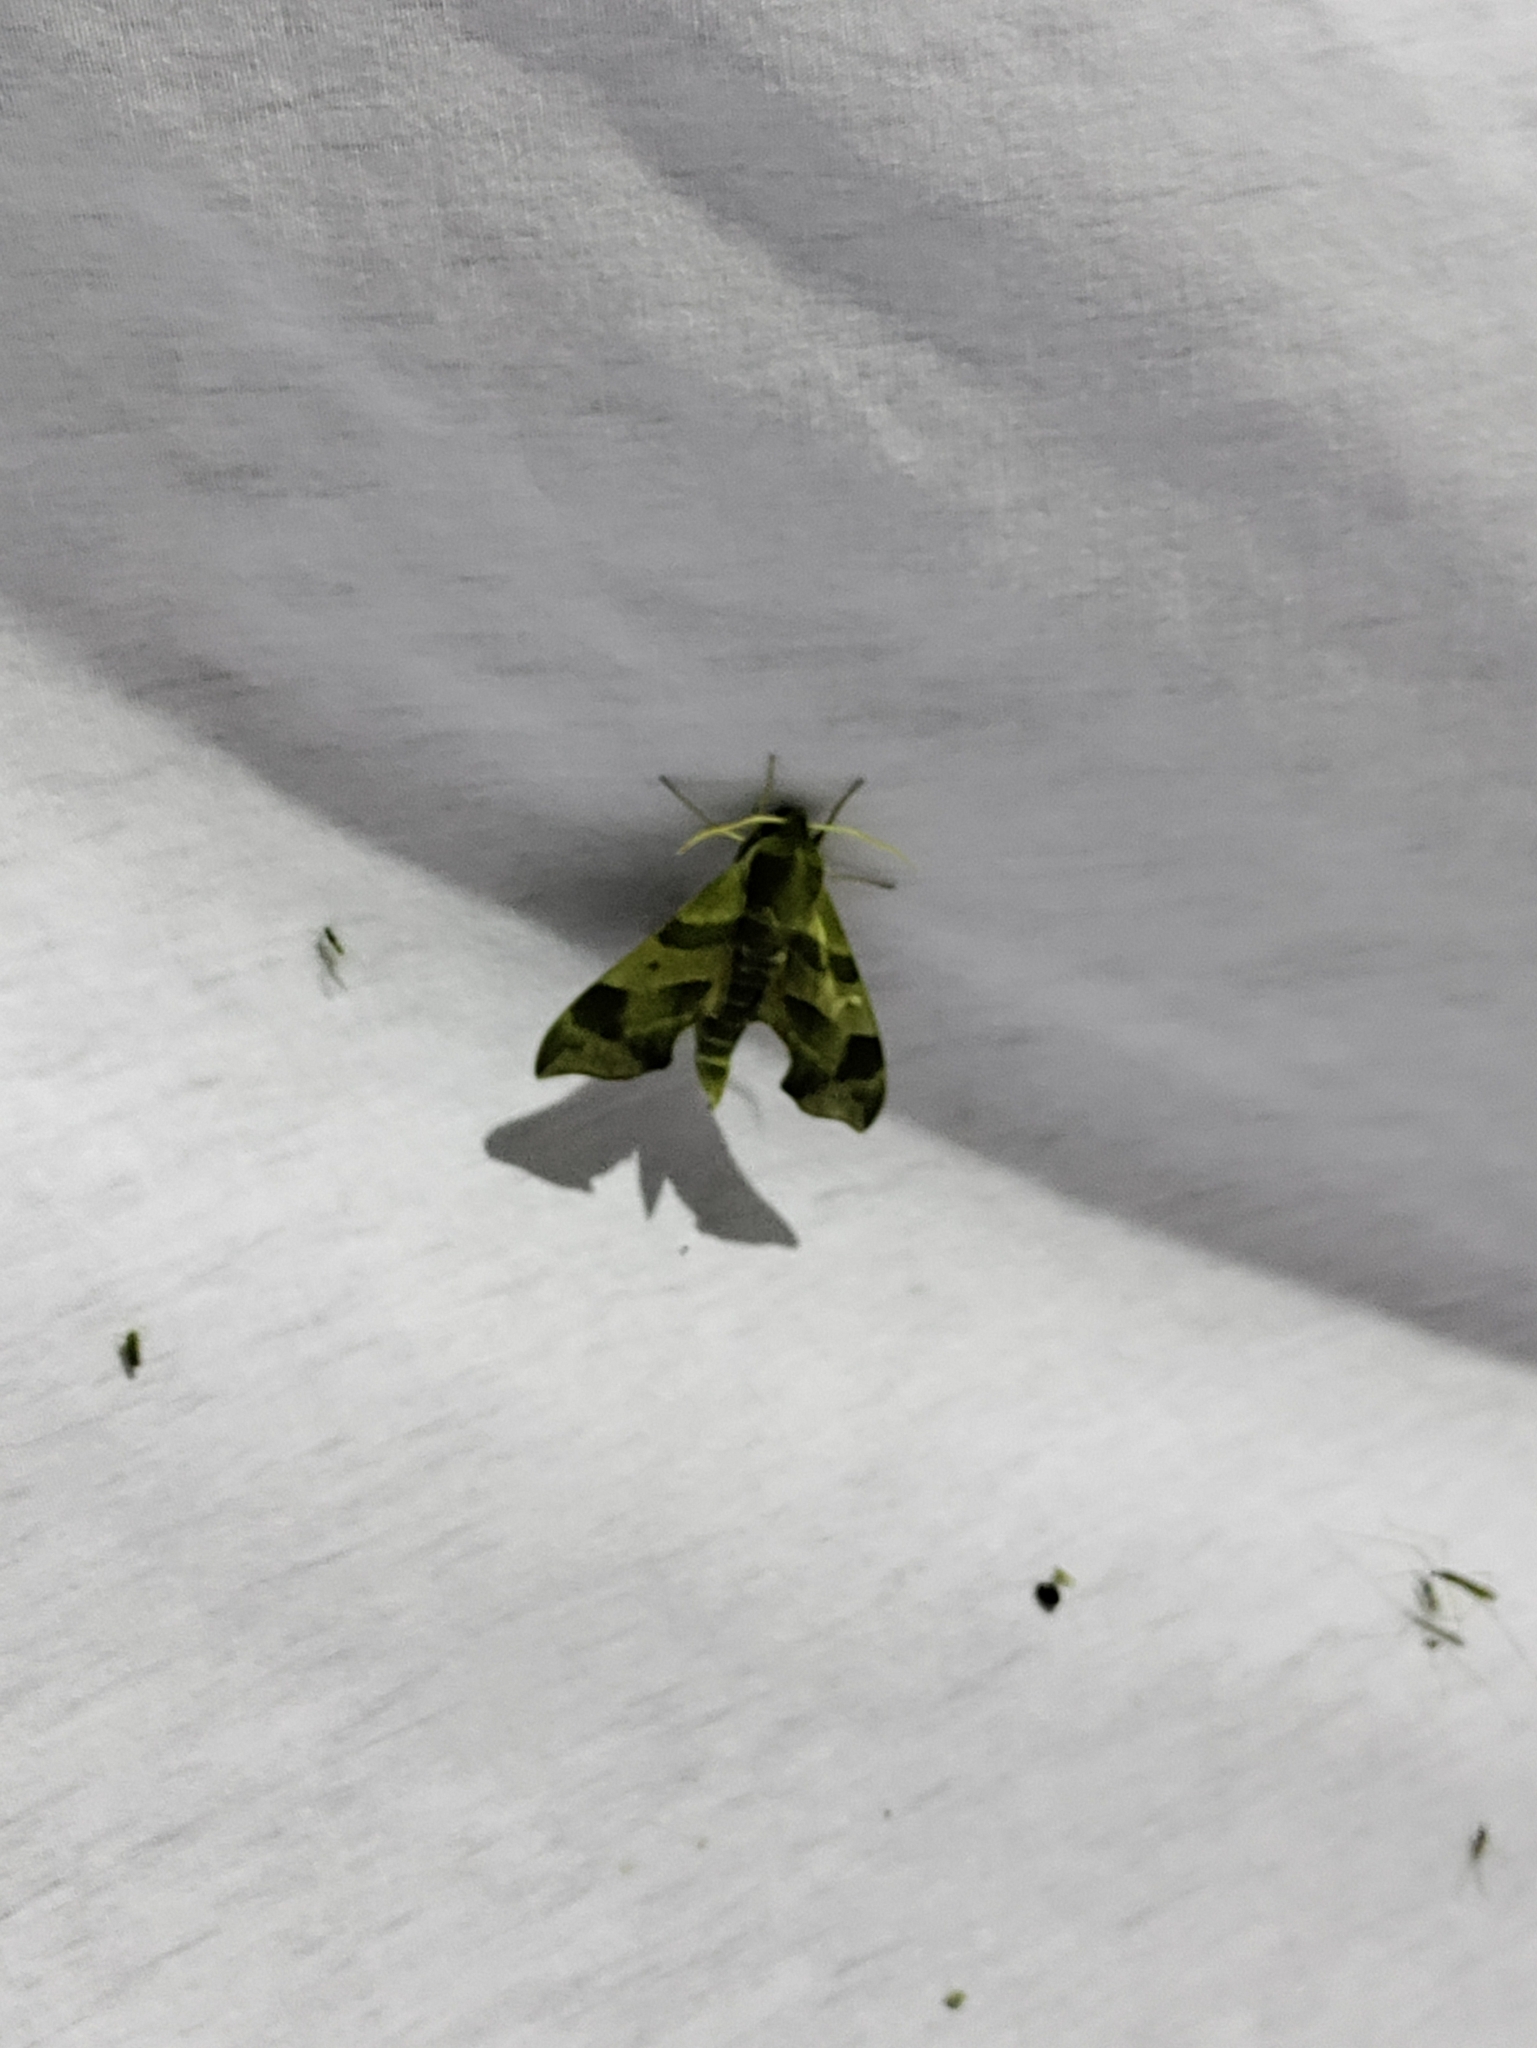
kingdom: Animalia
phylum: Arthropoda
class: Insecta
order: Lepidoptera
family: Sphingidae
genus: Darapsa
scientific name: Darapsa myron
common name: Hog sphinx
